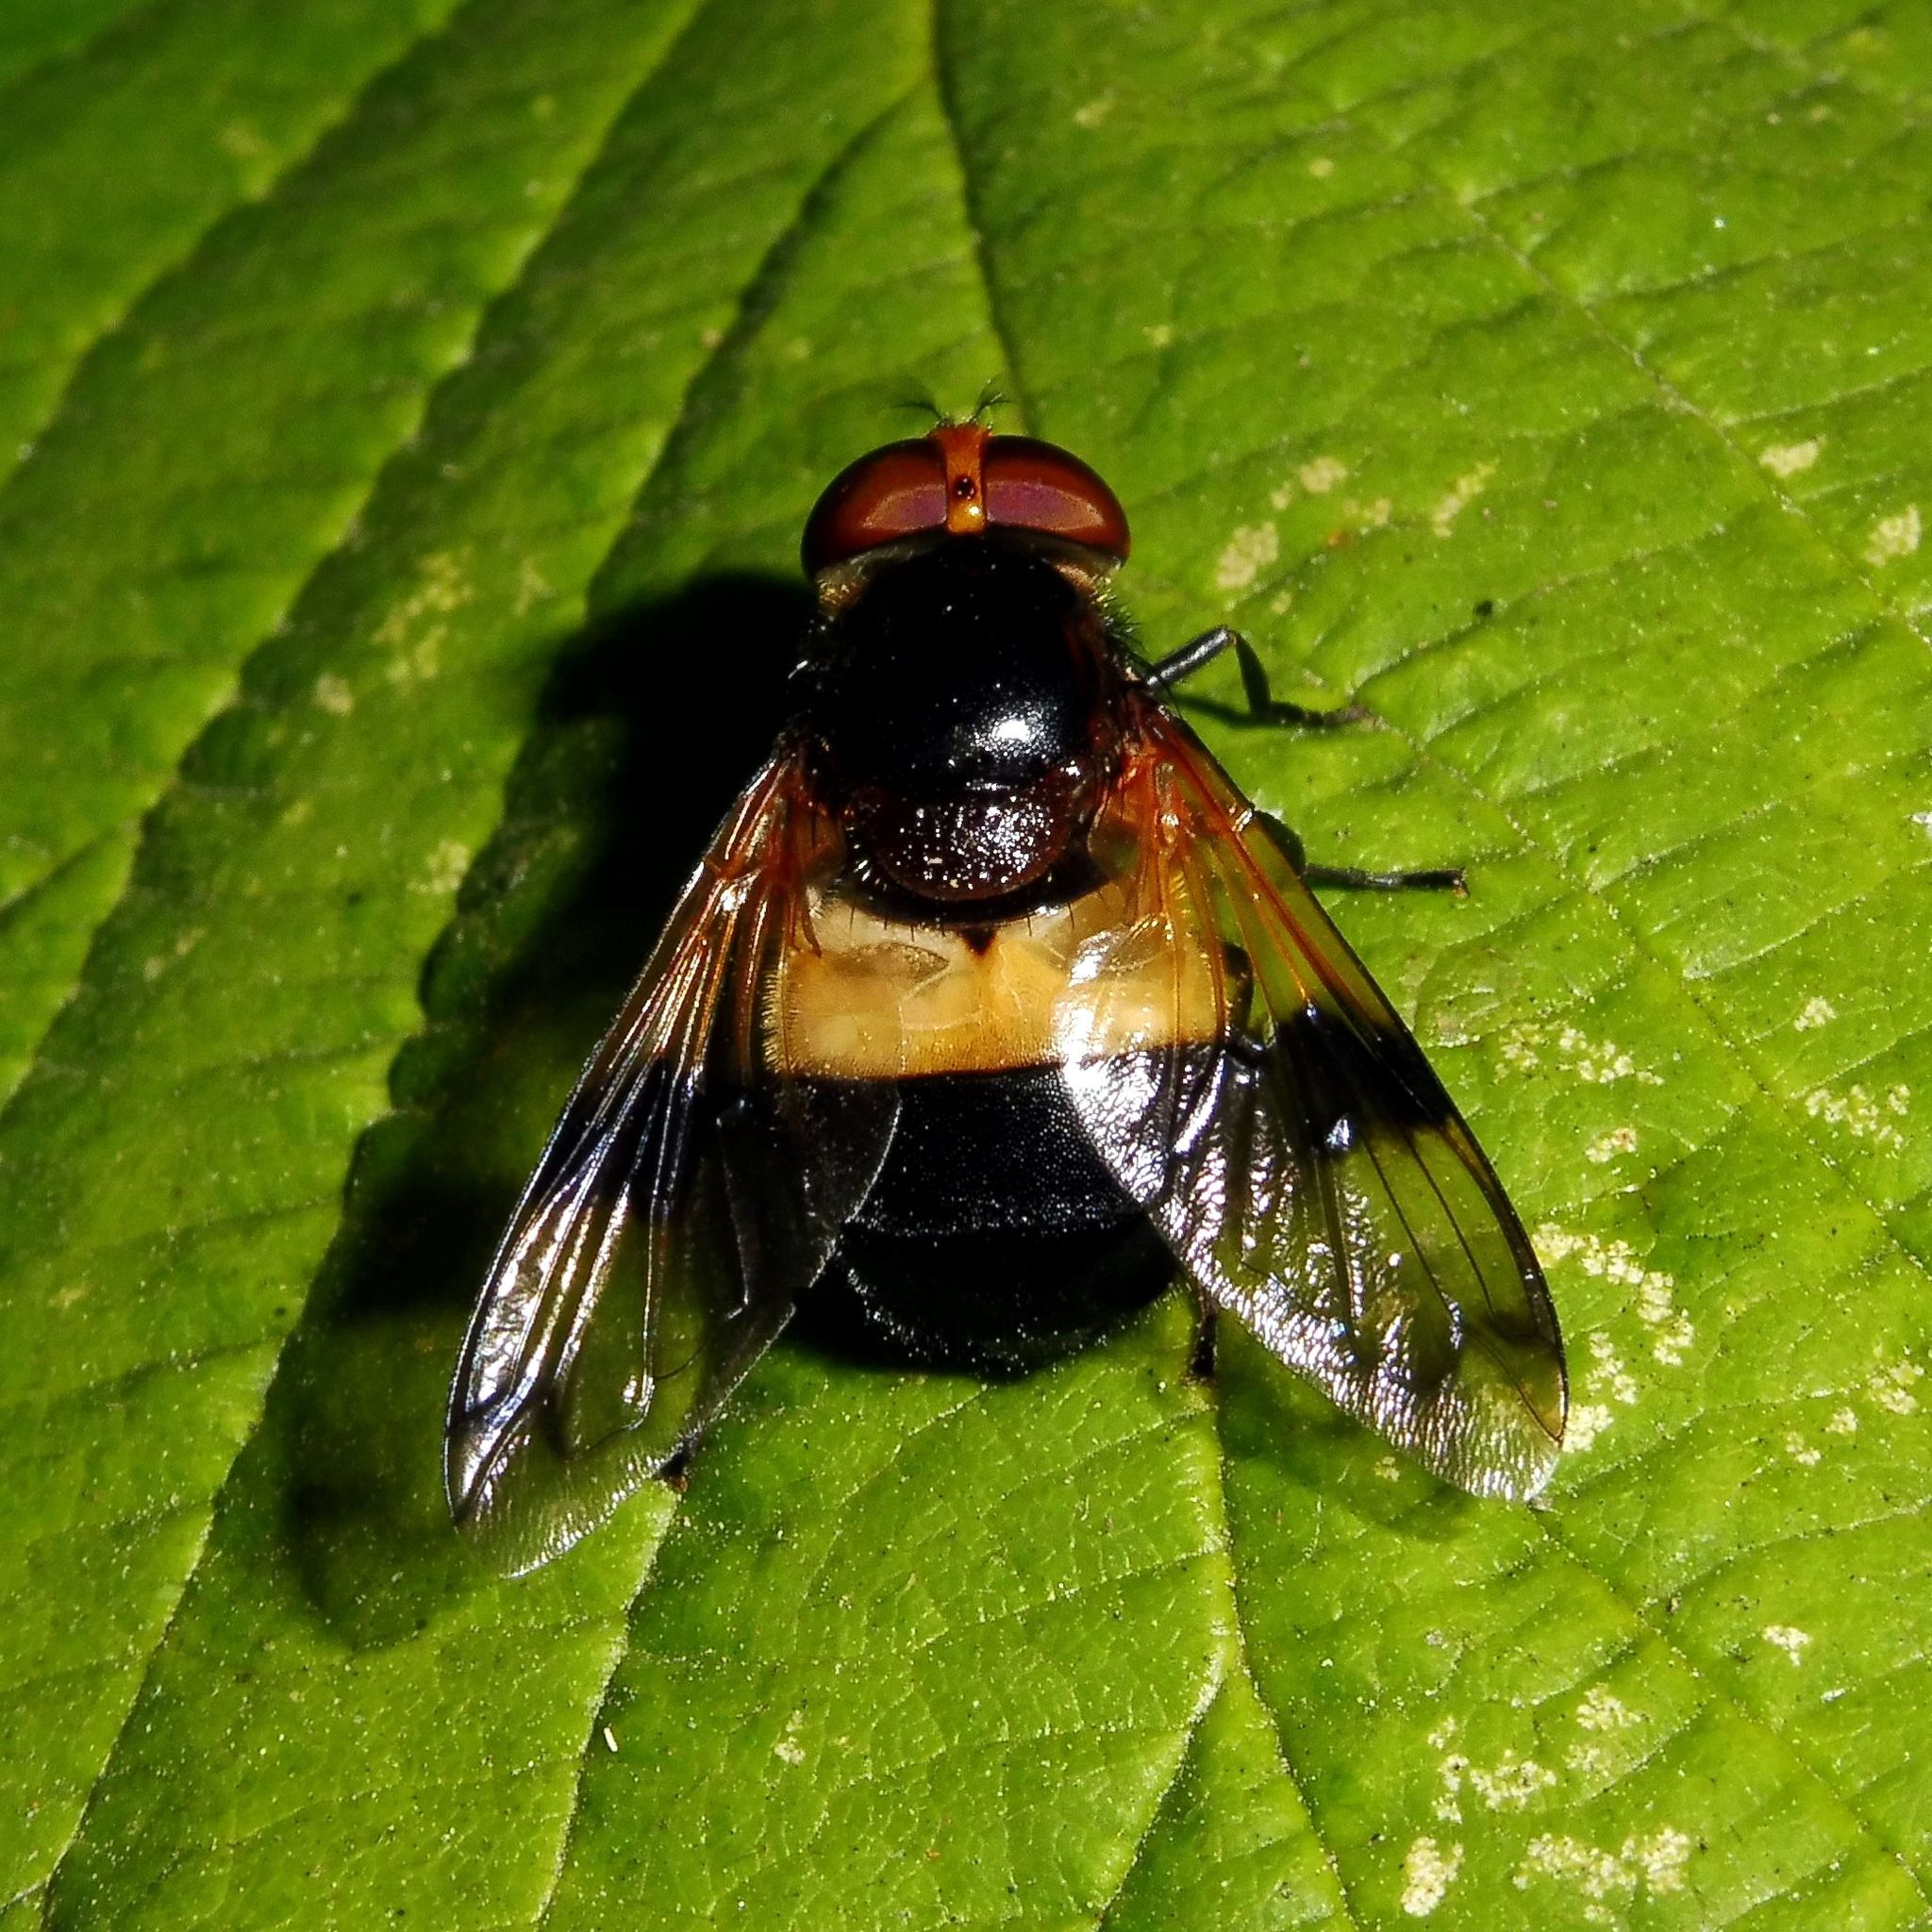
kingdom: Animalia
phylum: Arthropoda
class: Insecta
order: Diptera
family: Syrphidae
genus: Volucella
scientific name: Volucella pellucens
